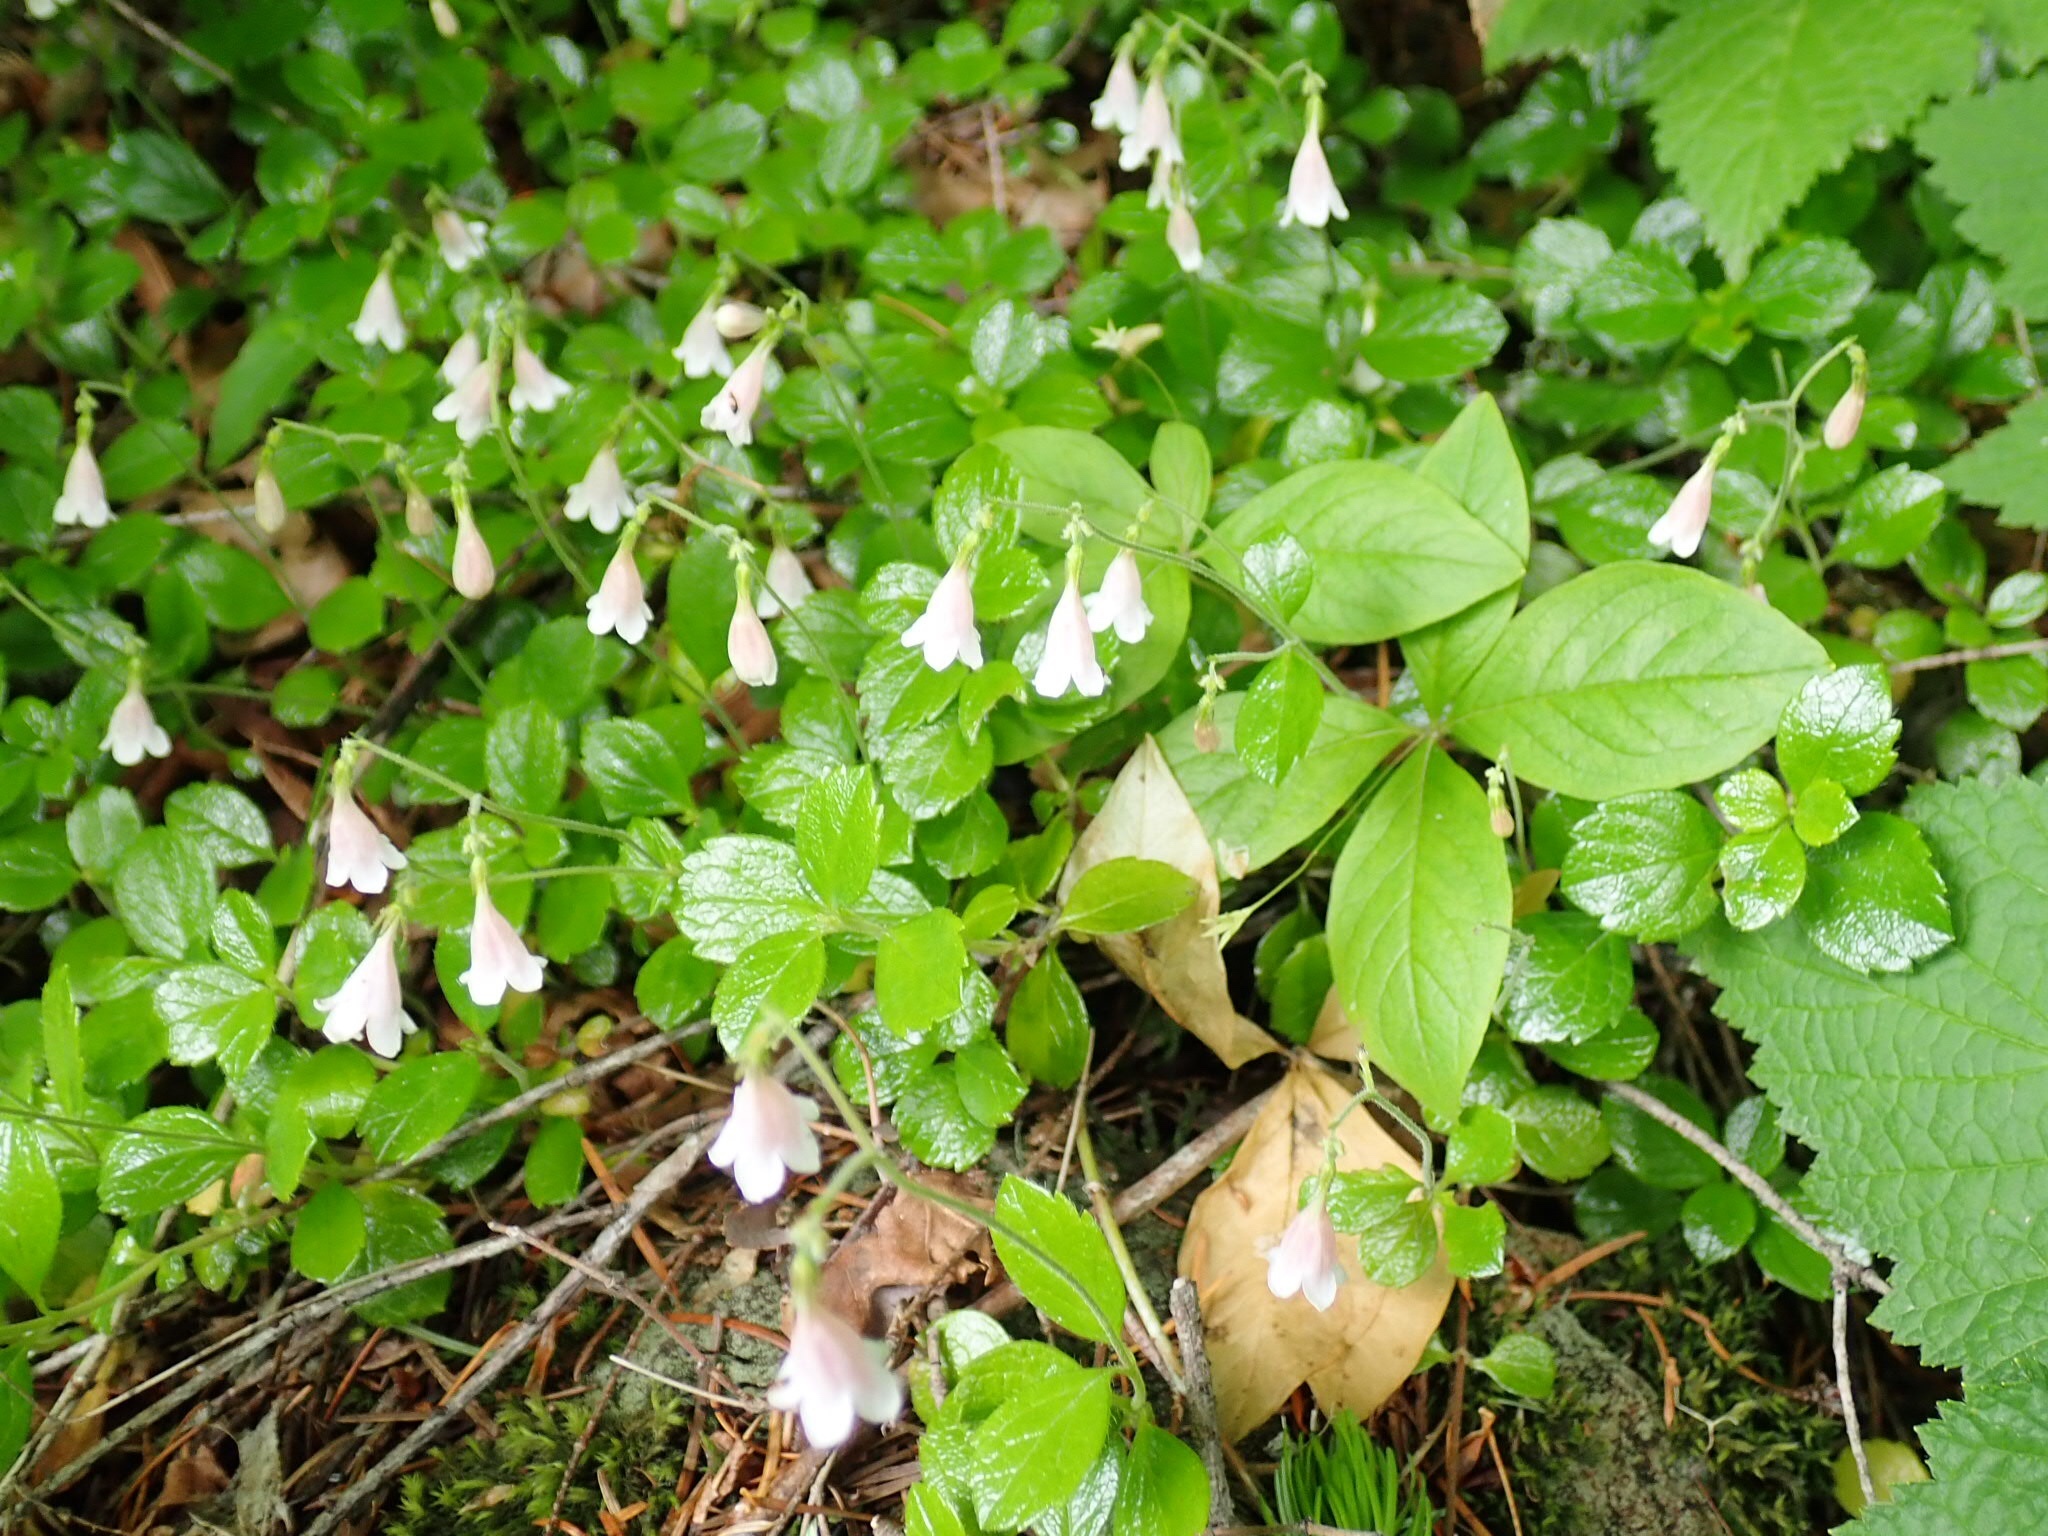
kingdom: Plantae
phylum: Tracheophyta
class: Magnoliopsida
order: Dipsacales
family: Caprifoliaceae
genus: Linnaea
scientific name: Linnaea borealis
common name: Twinflower
